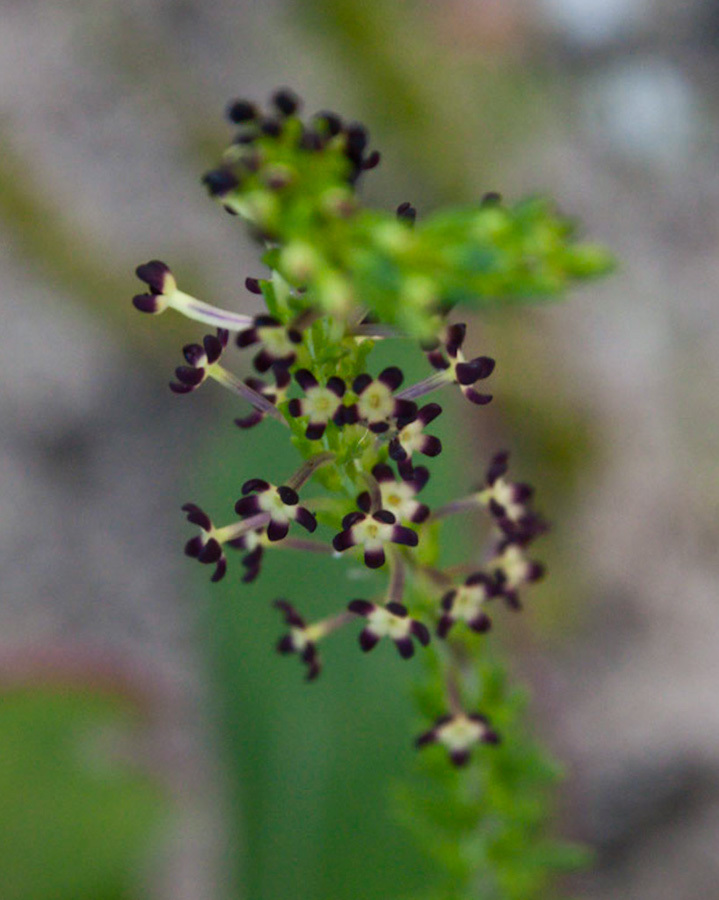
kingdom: Plantae
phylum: Tracheophyta
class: Magnoliopsida
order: Lamiales
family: Scrophulariaceae
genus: Microdon
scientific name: Microdon dubius
